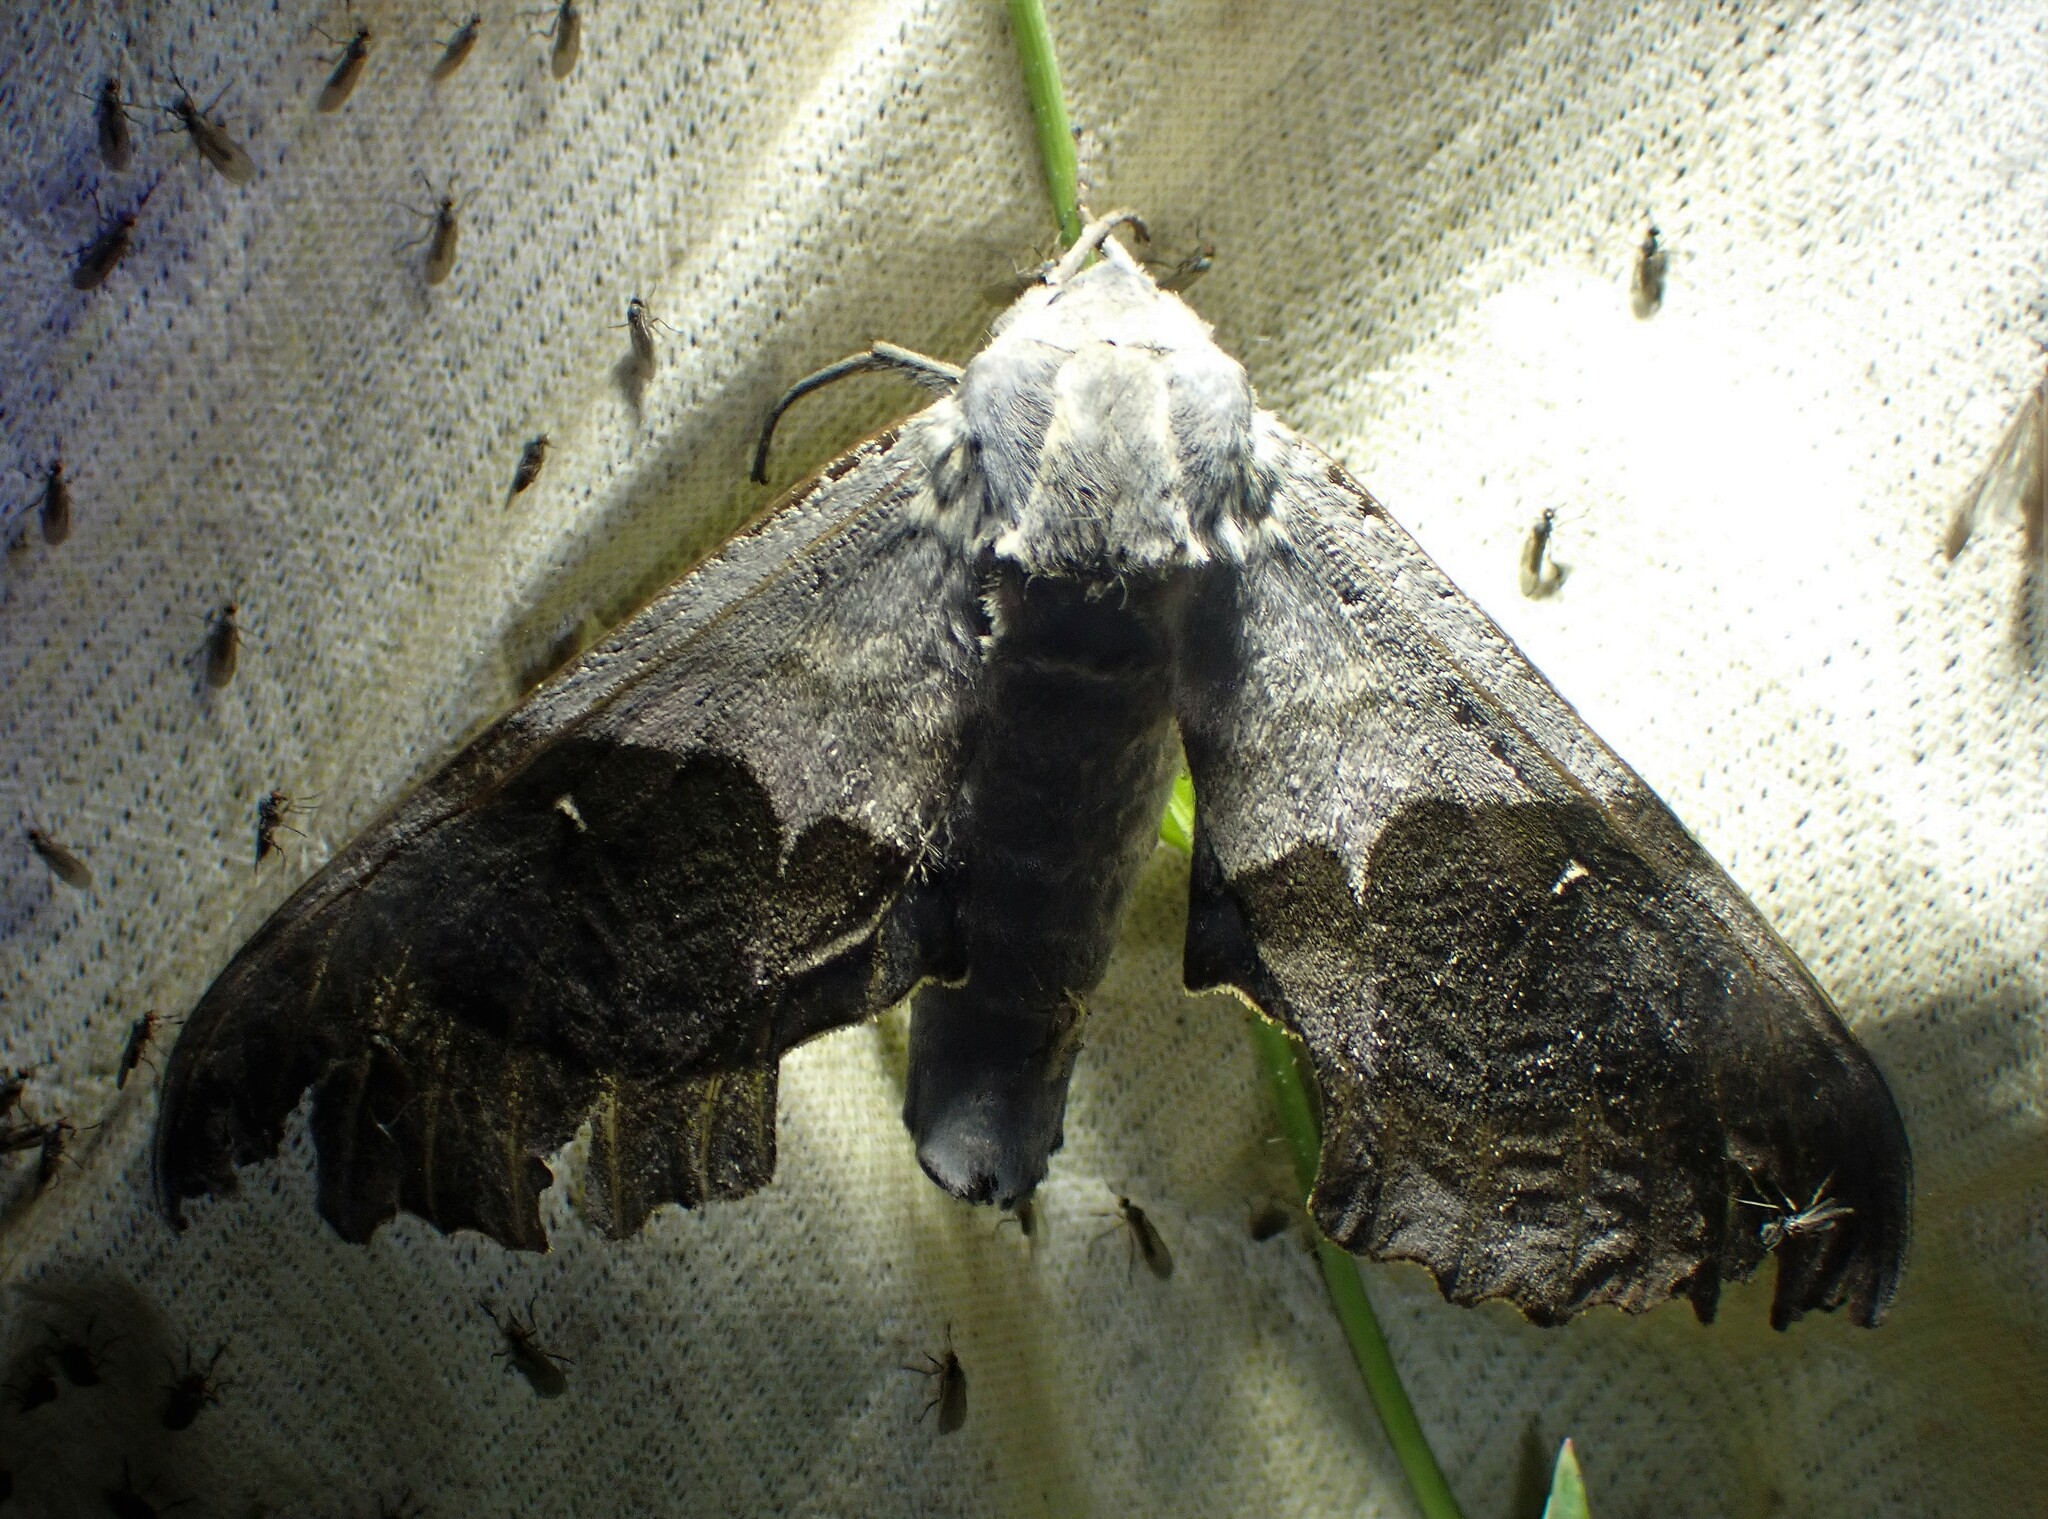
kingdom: Animalia
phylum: Arthropoda
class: Insecta
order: Lepidoptera
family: Sphingidae
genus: Pachysphinx
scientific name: Pachysphinx modesta
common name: Big poplar sphinx
